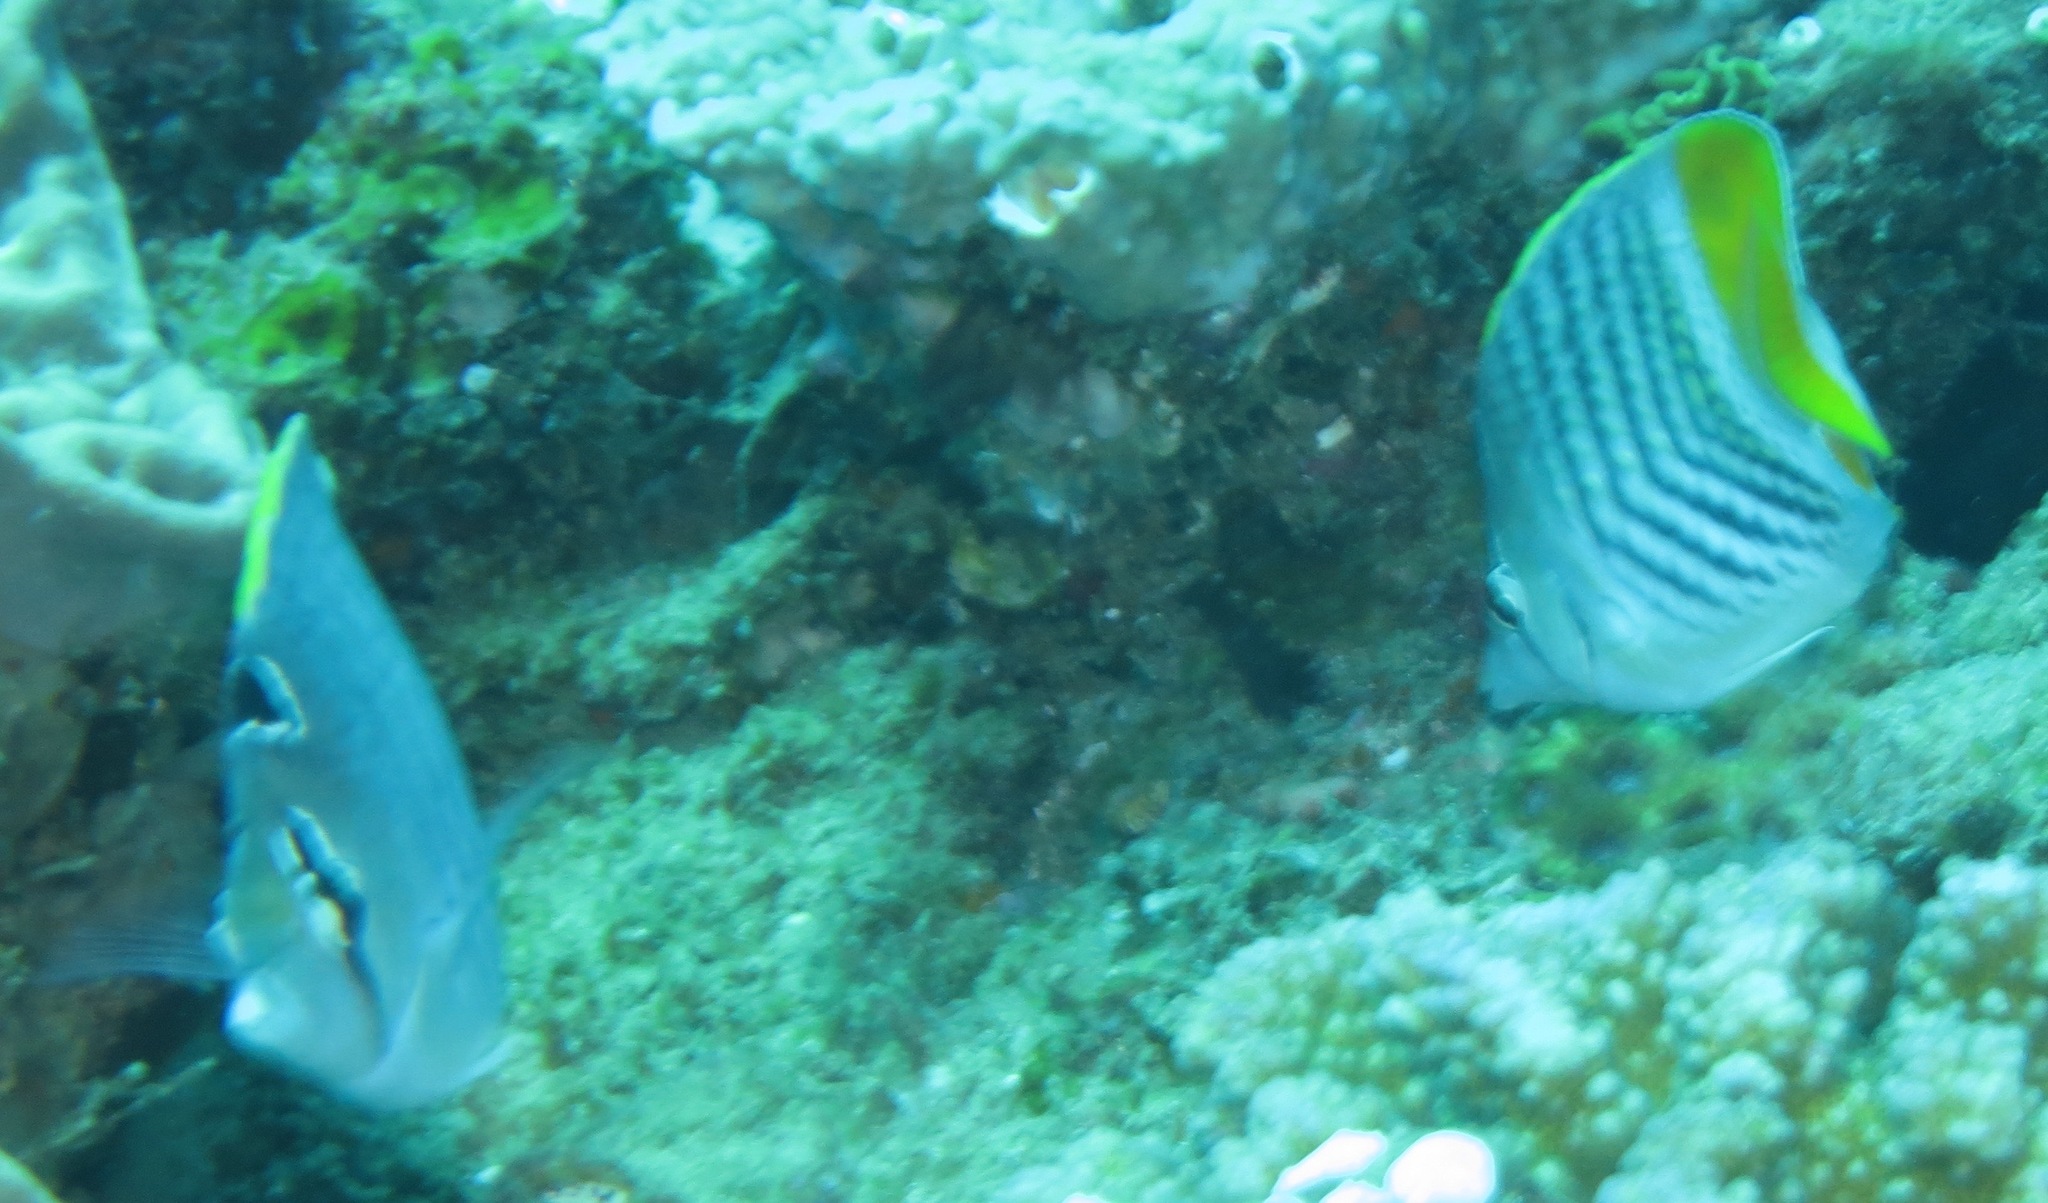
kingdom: Animalia
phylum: Chordata
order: Perciformes
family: Chaetodontidae
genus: Chaetodon
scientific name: Chaetodon madagaskariensis
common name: Madagascar butterflyfish
